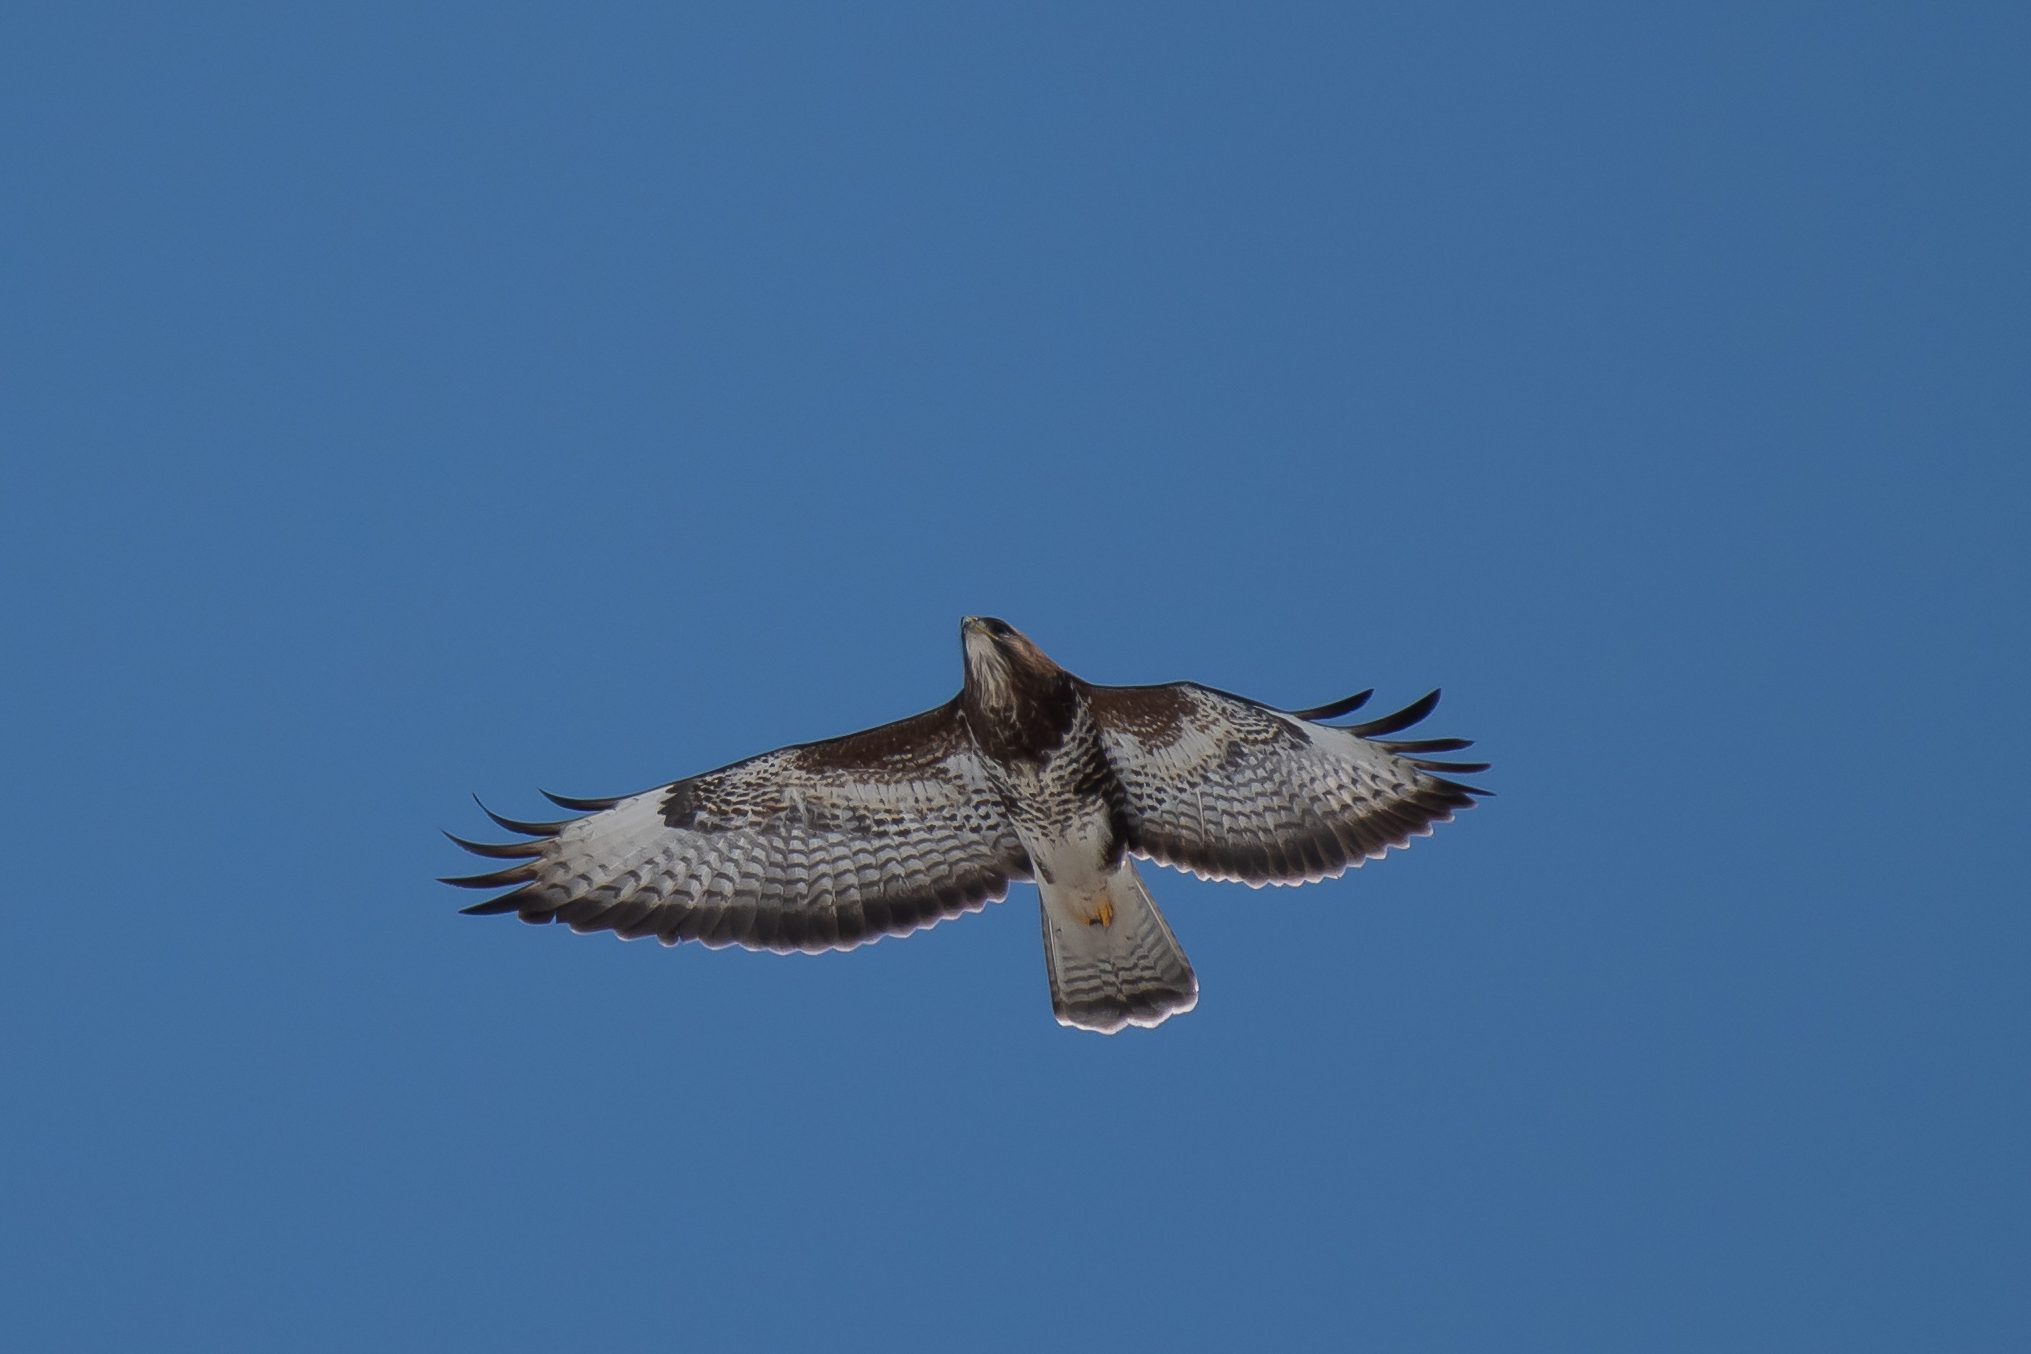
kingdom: Animalia
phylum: Chordata
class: Aves
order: Accipitriformes
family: Accipitridae
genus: Buteo
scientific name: Buteo buteo
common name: Common buzzard
